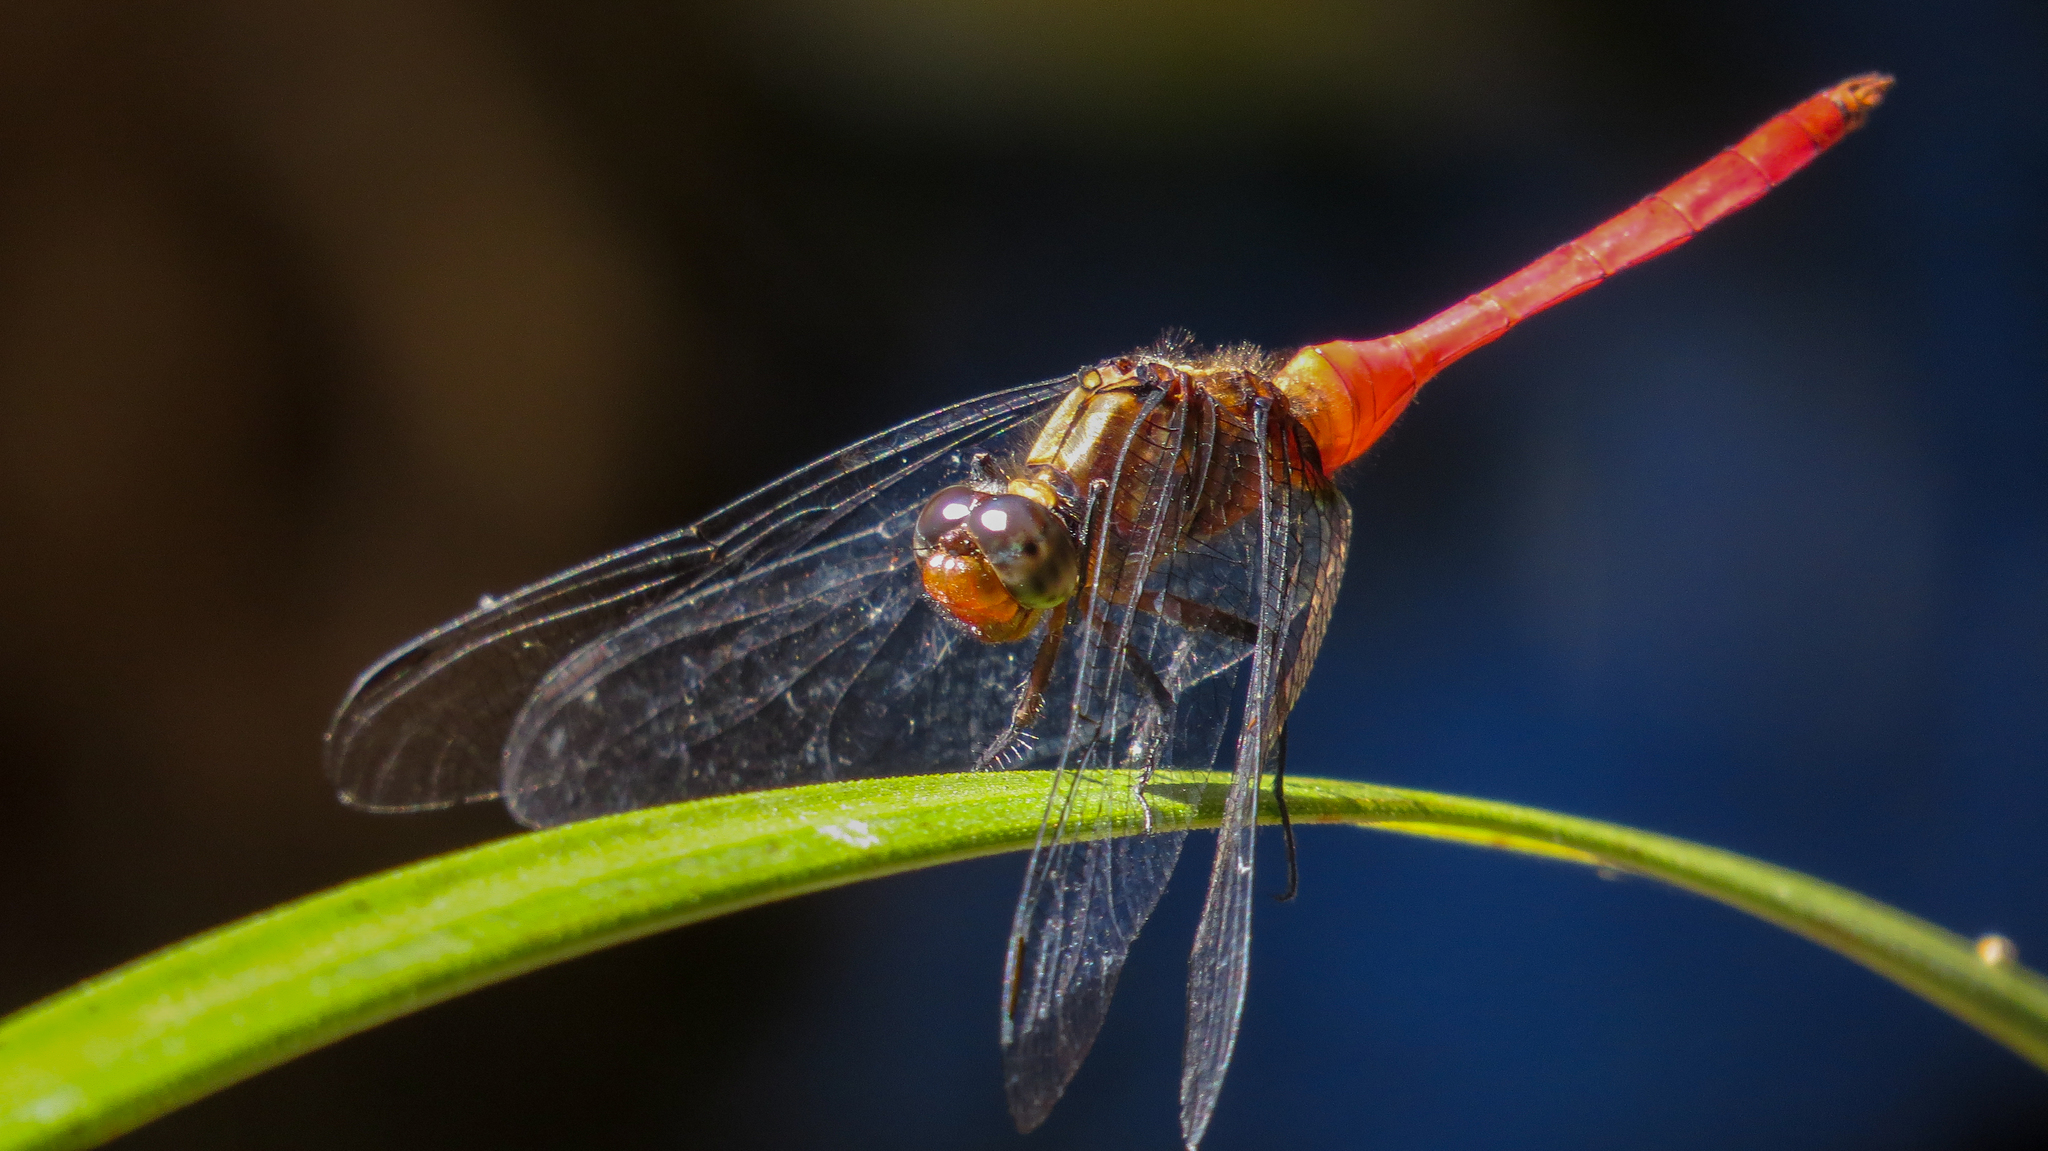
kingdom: Animalia
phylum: Arthropoda
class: Insecta
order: Odonata
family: Libellulidae
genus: Orthetrum
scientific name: Orthetrum villosovittatum
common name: Firery skimmer
